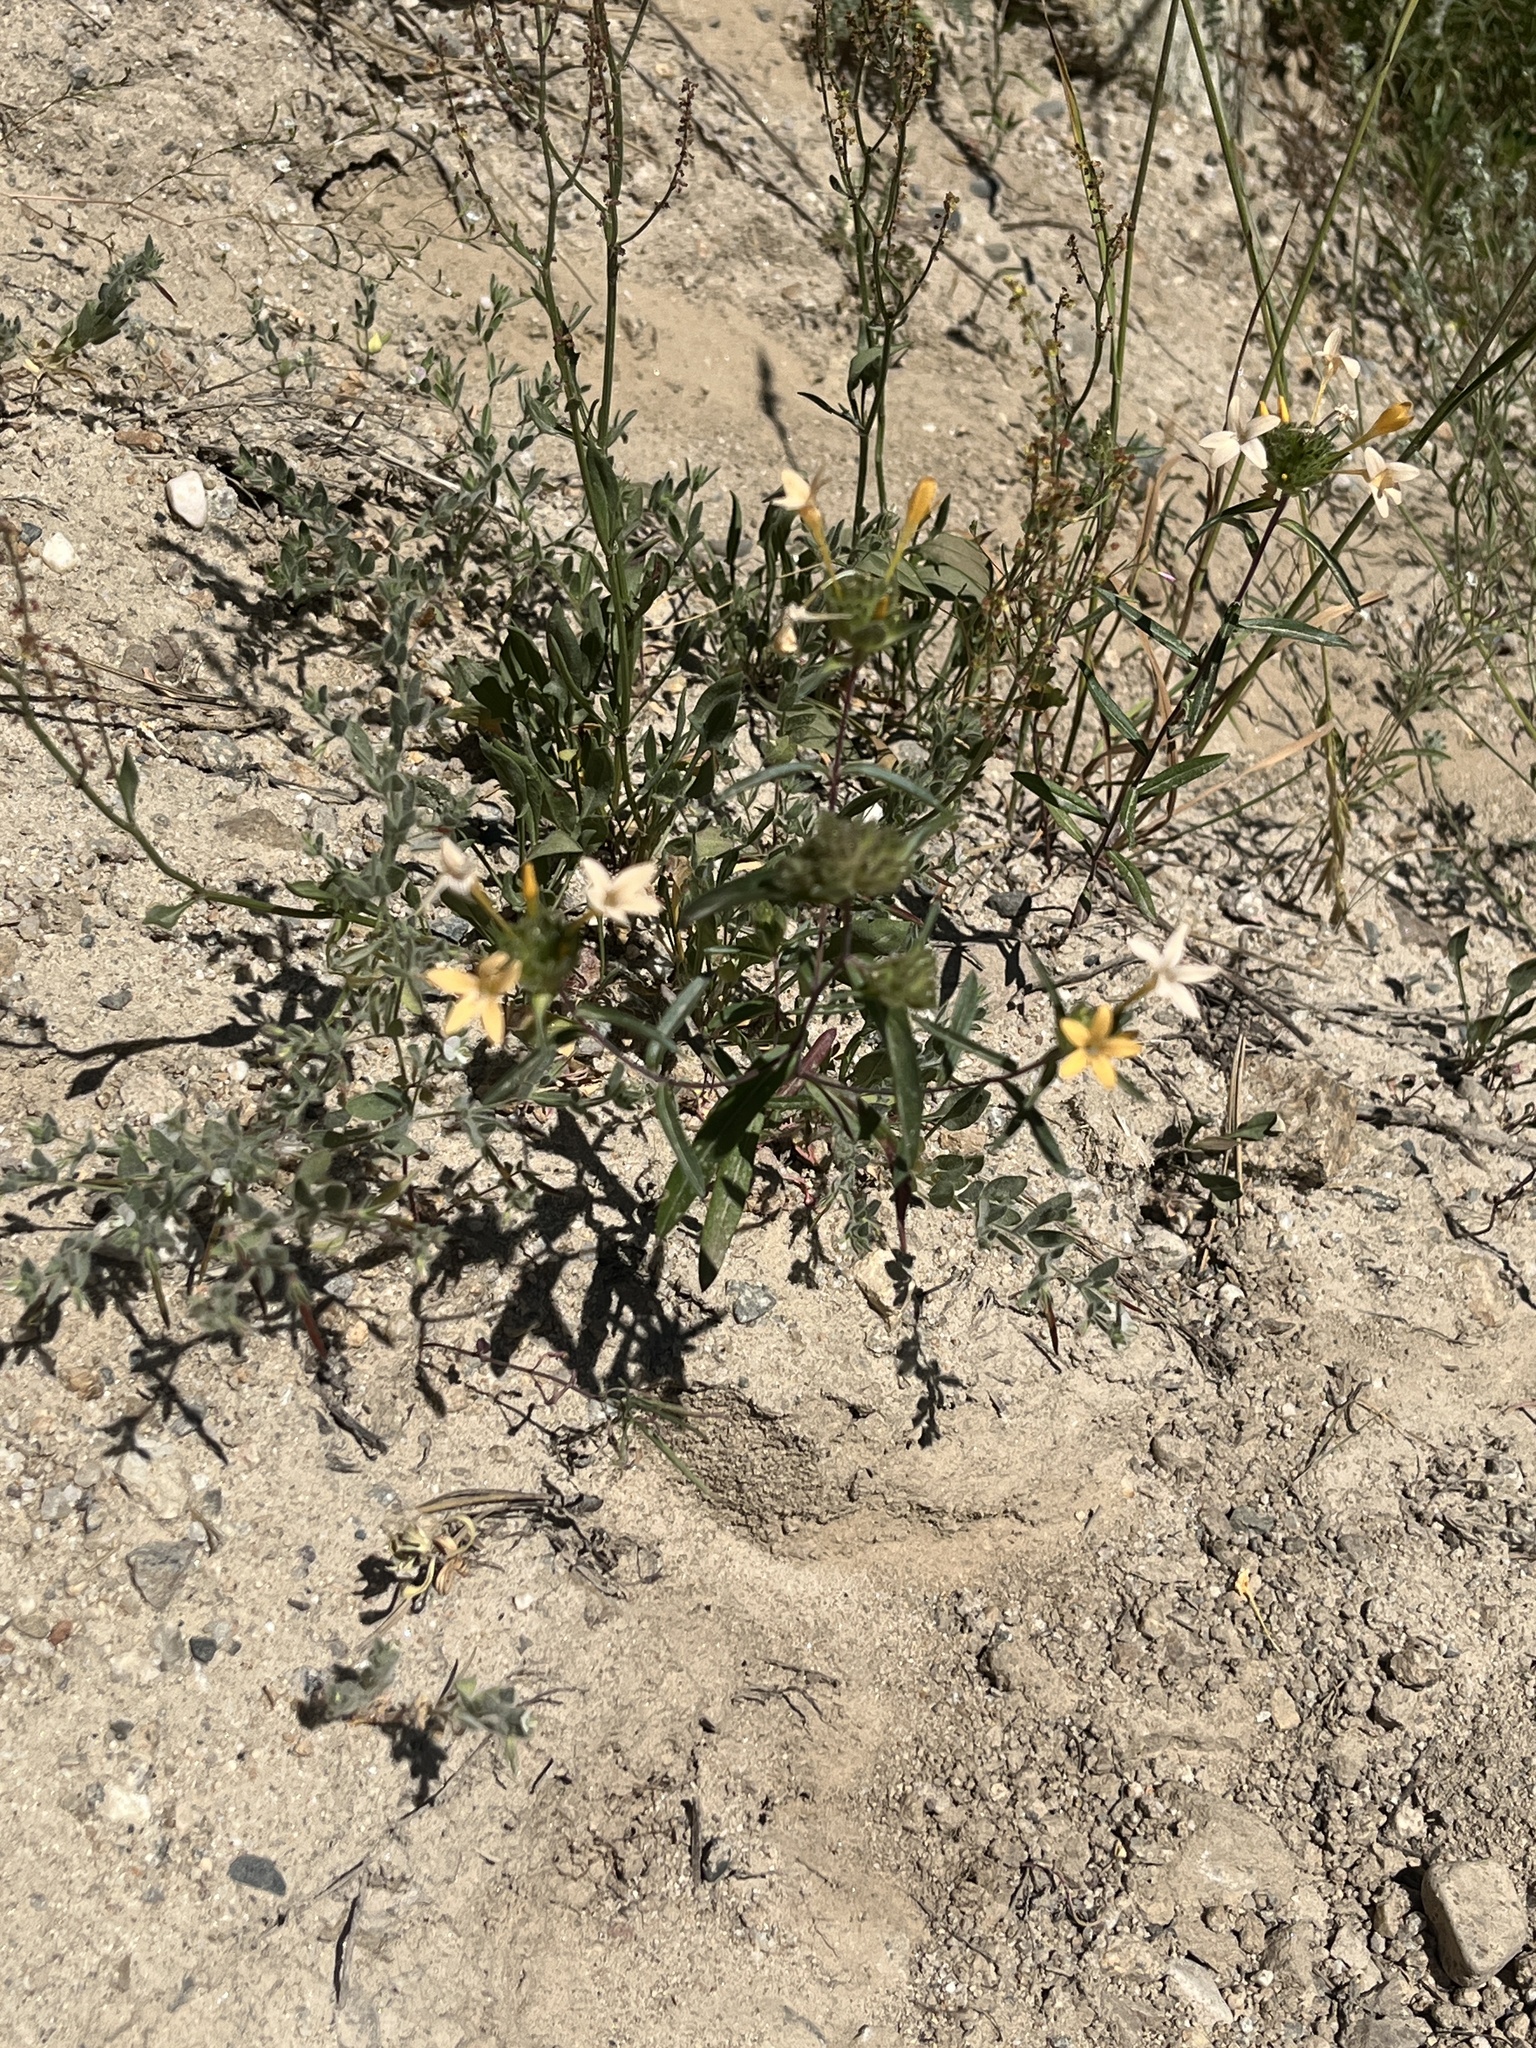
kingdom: Plantae
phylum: Tracheophyta
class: Magnoliopsida
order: Ericales
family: Polemoniaceae
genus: Collomia
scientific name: Collomia grandiflora
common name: California strawflower
